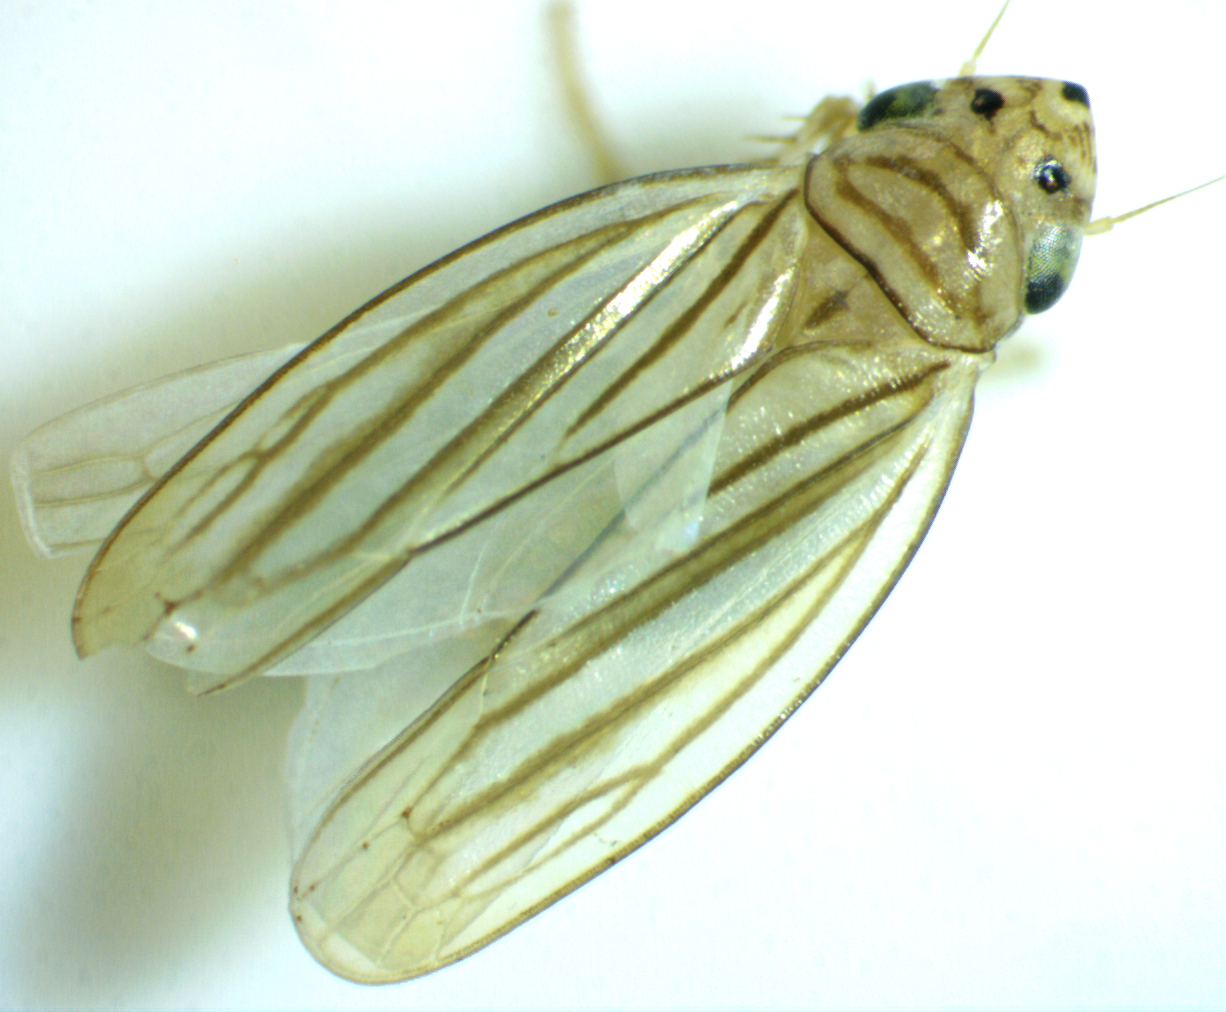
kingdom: Animalia
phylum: Arthropoda
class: Insecta
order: Hemiptera
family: Cicadellidae
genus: Provancherana
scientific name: Provancherana tripunctata
